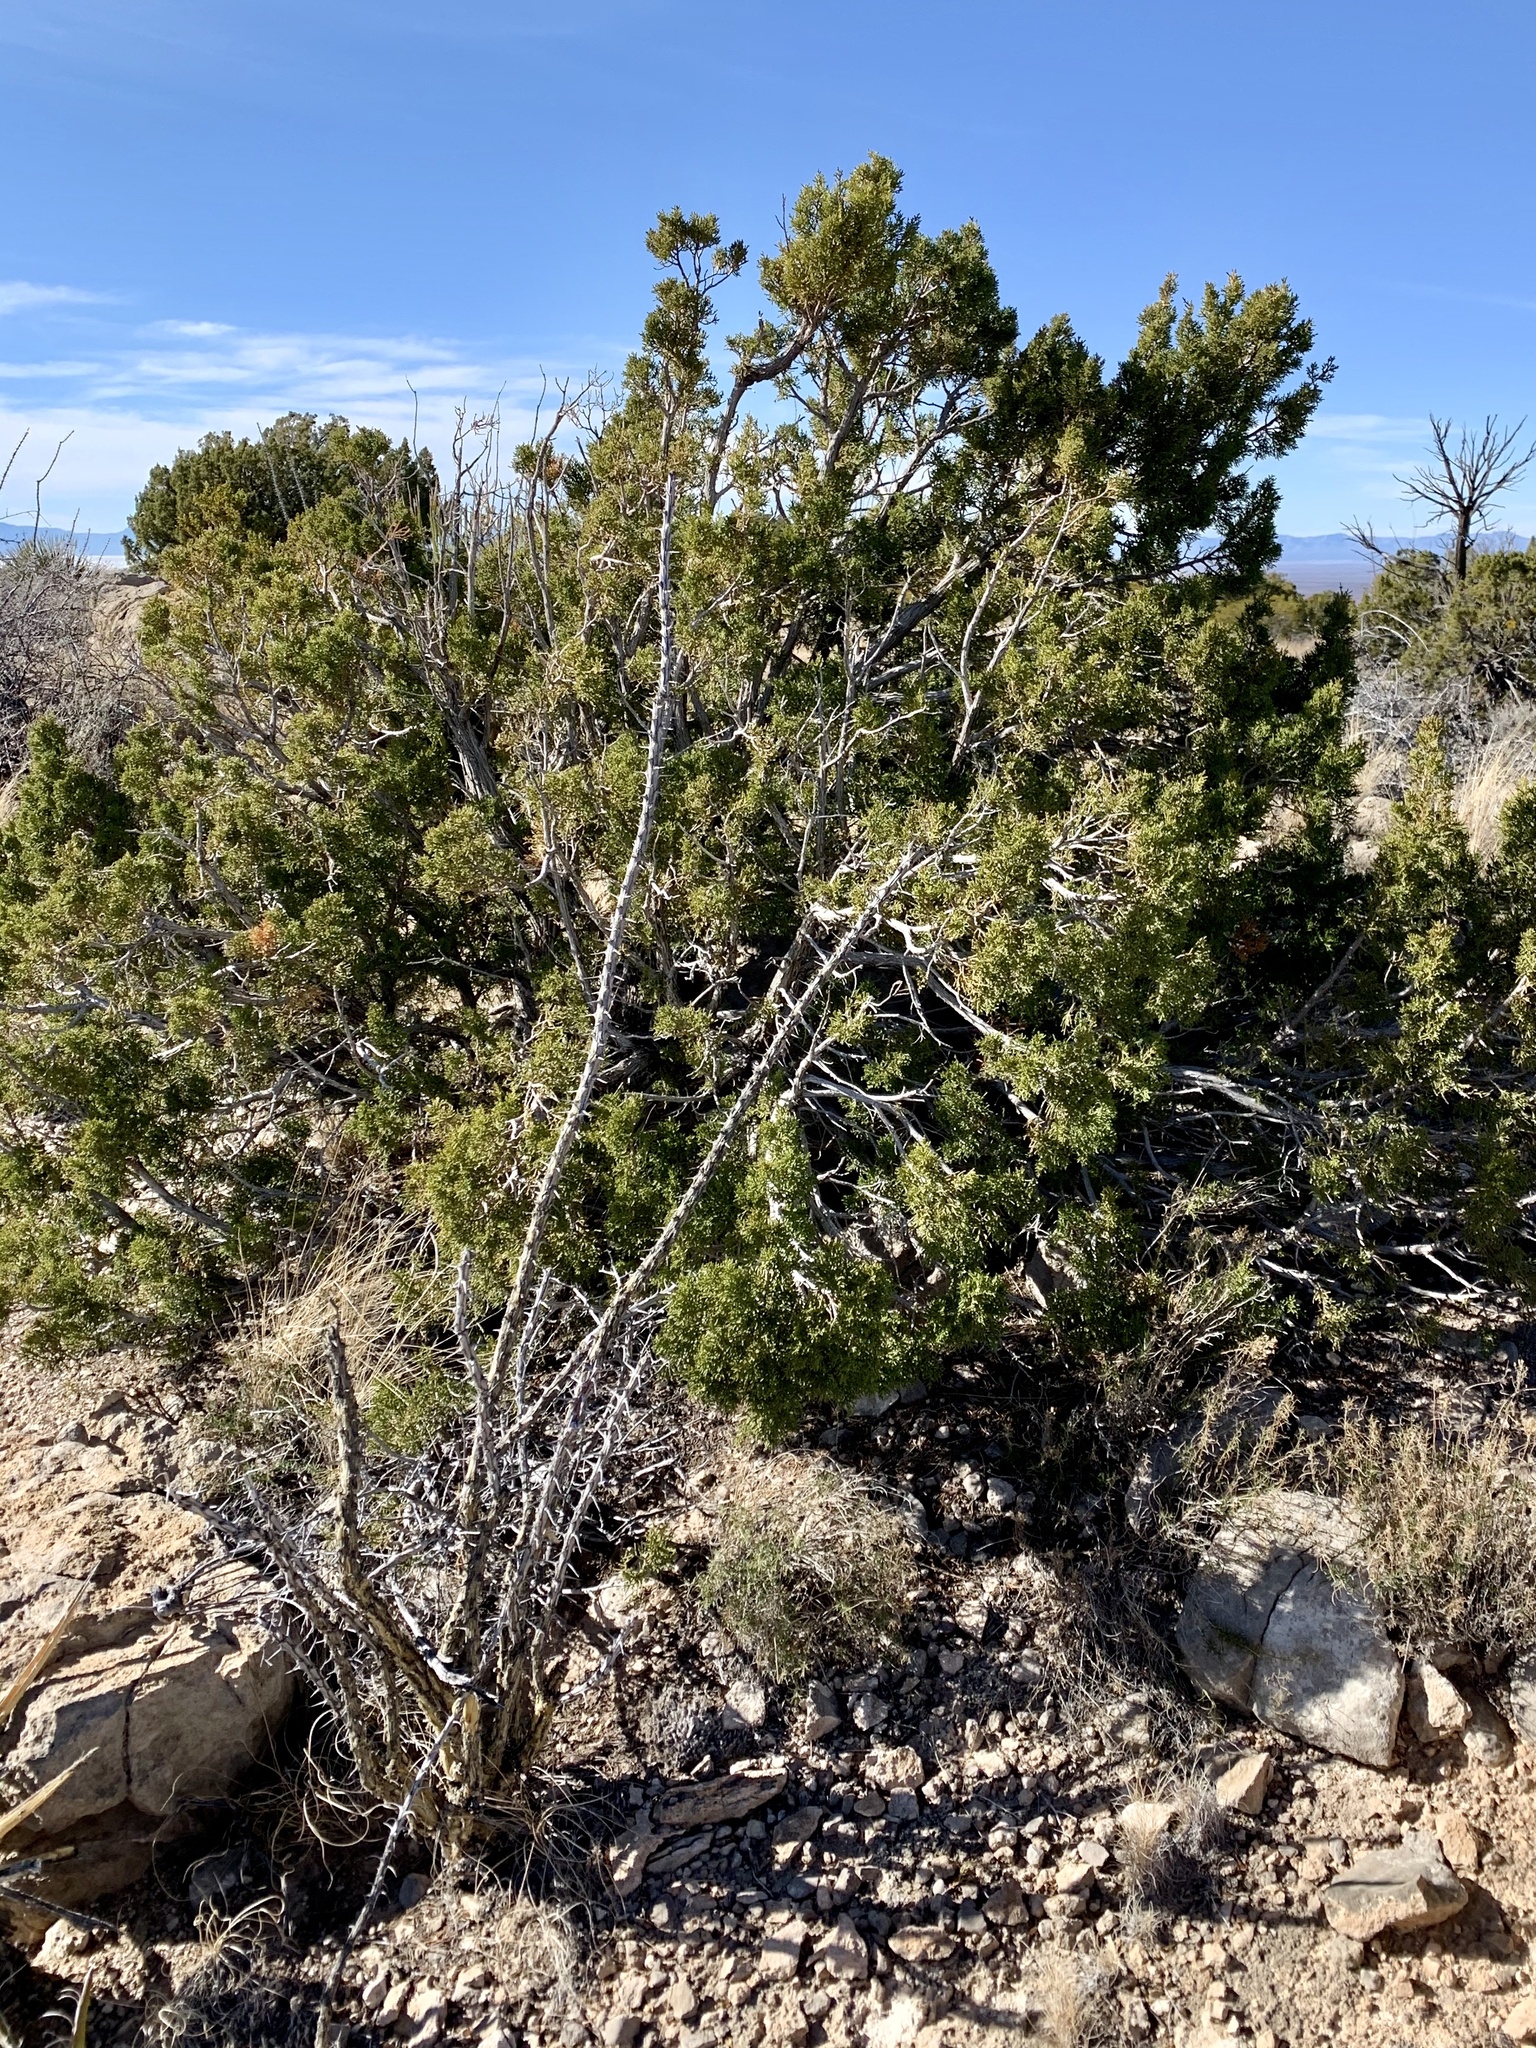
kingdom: Plantae
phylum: Tracheophyta
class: Magnoliopsida
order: Ericales
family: Fouquieriaceae
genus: Fouquieria
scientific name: Fouquieria splendens
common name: Vine-cactus
